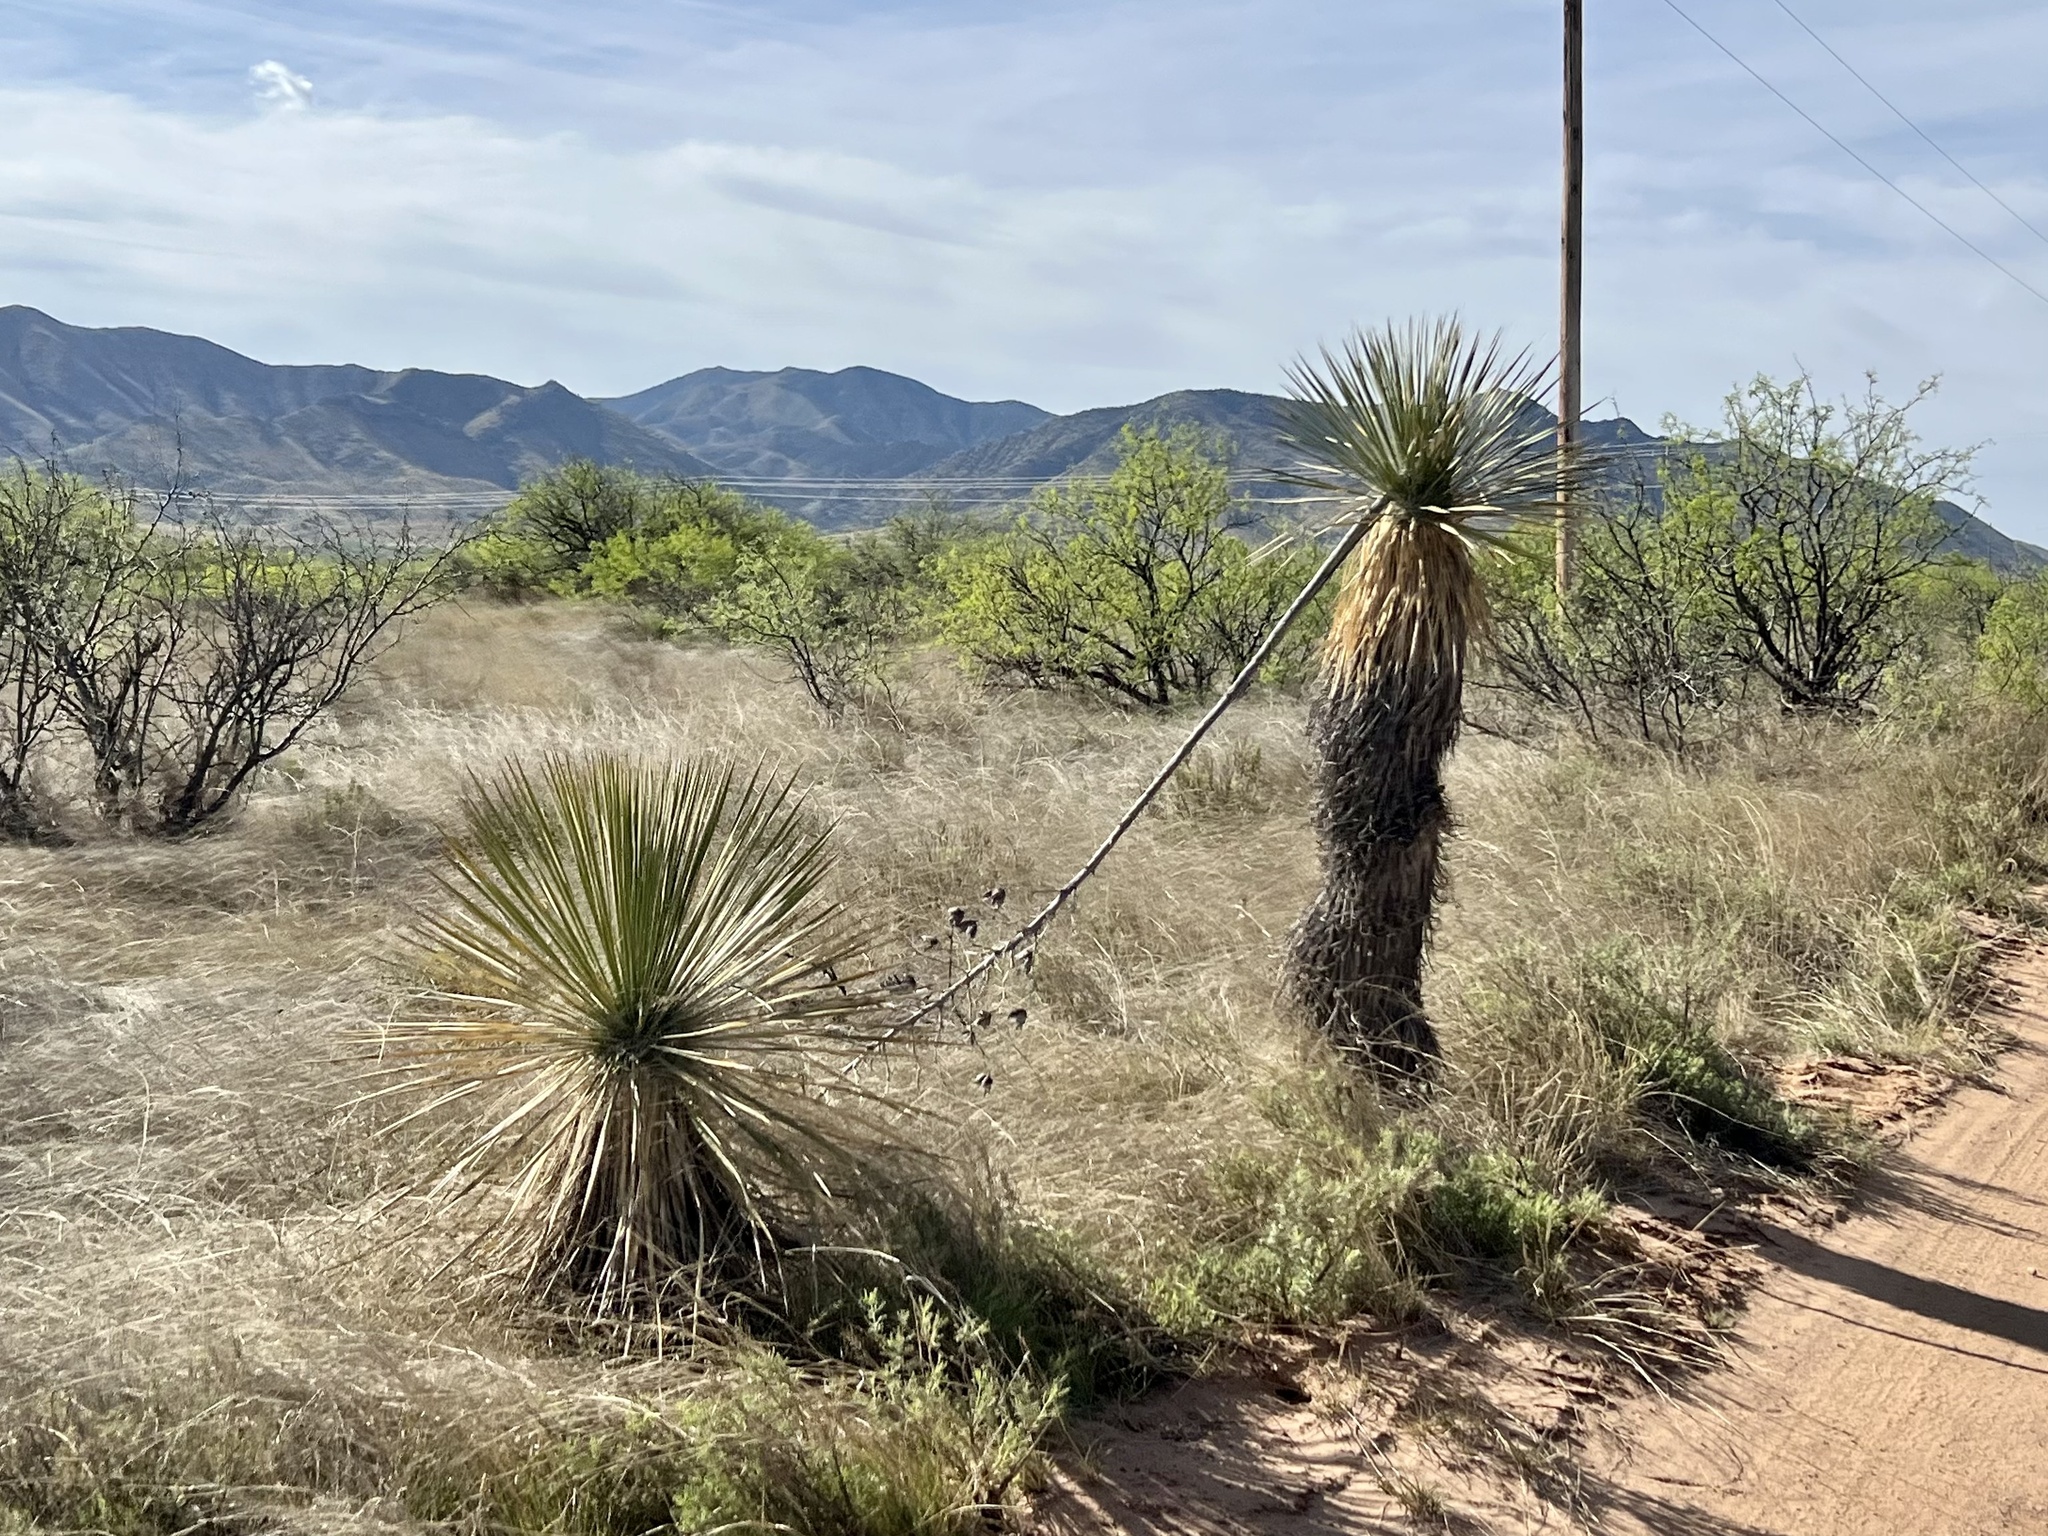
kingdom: Plantae
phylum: Tracheophyta
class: Liliopsida
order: Asparagales
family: Asparagaceae
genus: Yucca
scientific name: Yucca elata
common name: Palmella
